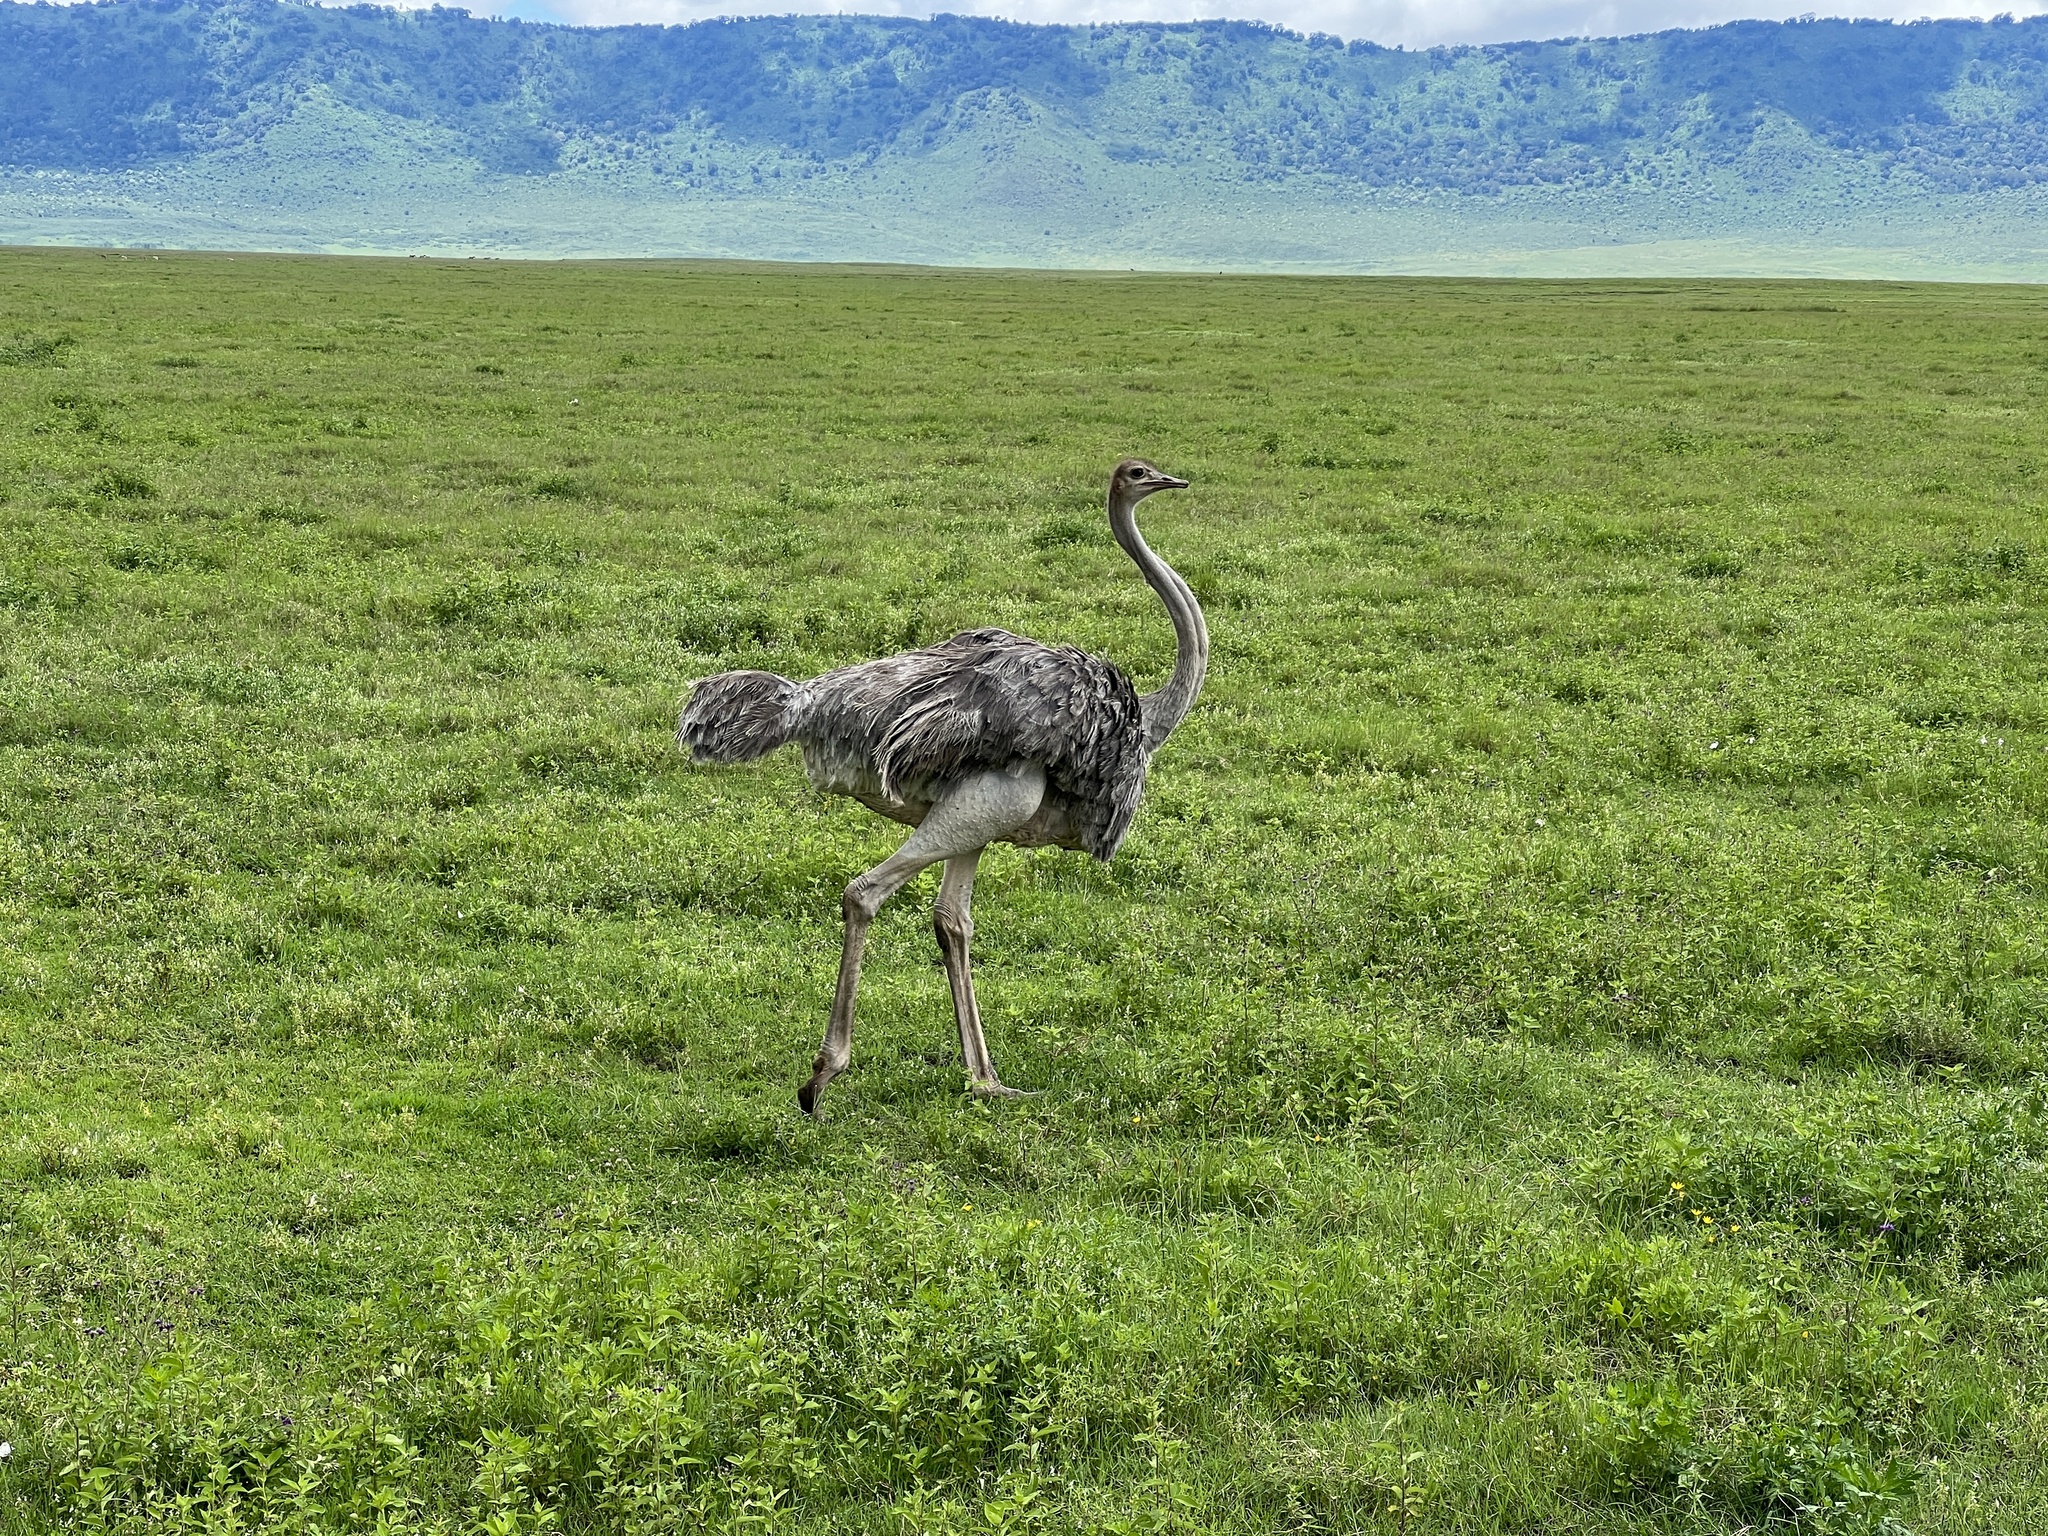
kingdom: Animalia
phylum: Chordata
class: Aves
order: Struthioniformes
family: Struthionidae
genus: Struthio
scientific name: Struthio camelus
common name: Common ostrich
